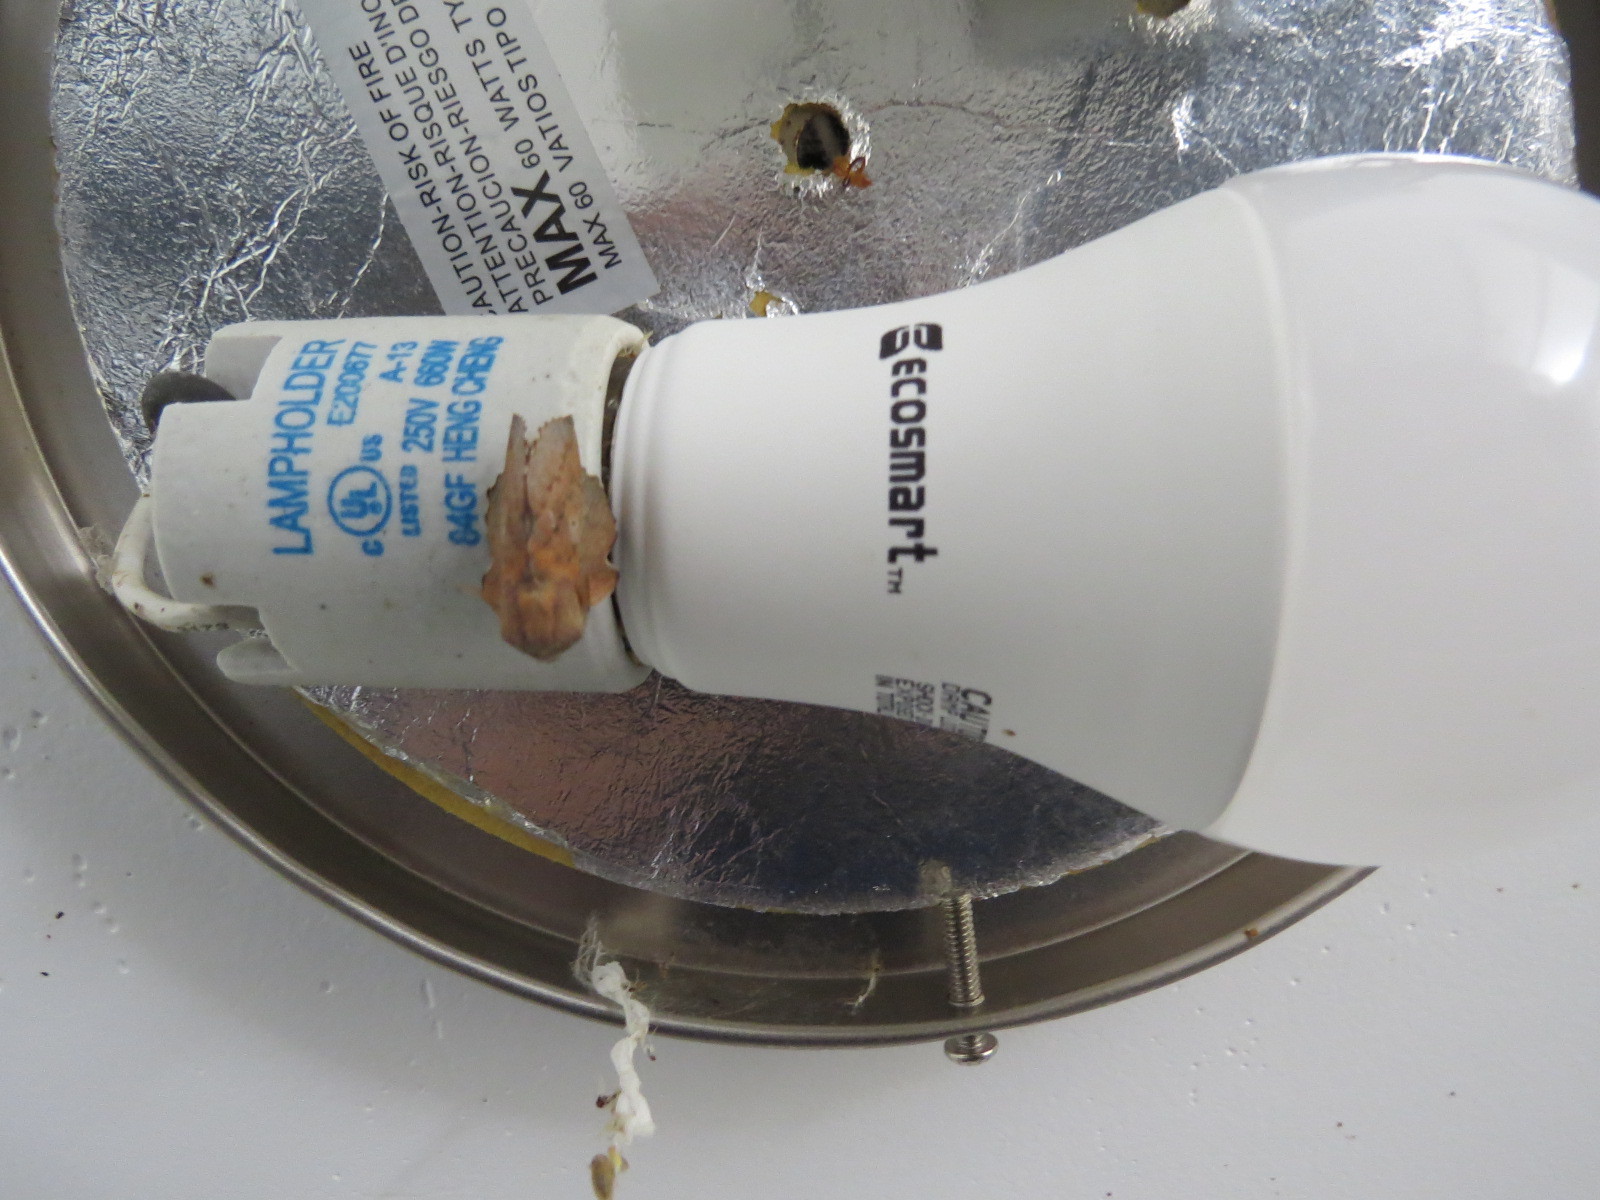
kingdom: Animalia
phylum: Arthropoda
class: Insecta
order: Lepidoptera
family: Lasiocampidae
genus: Phyllodesma
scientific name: Phyllodesma americana
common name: American lappet moth
